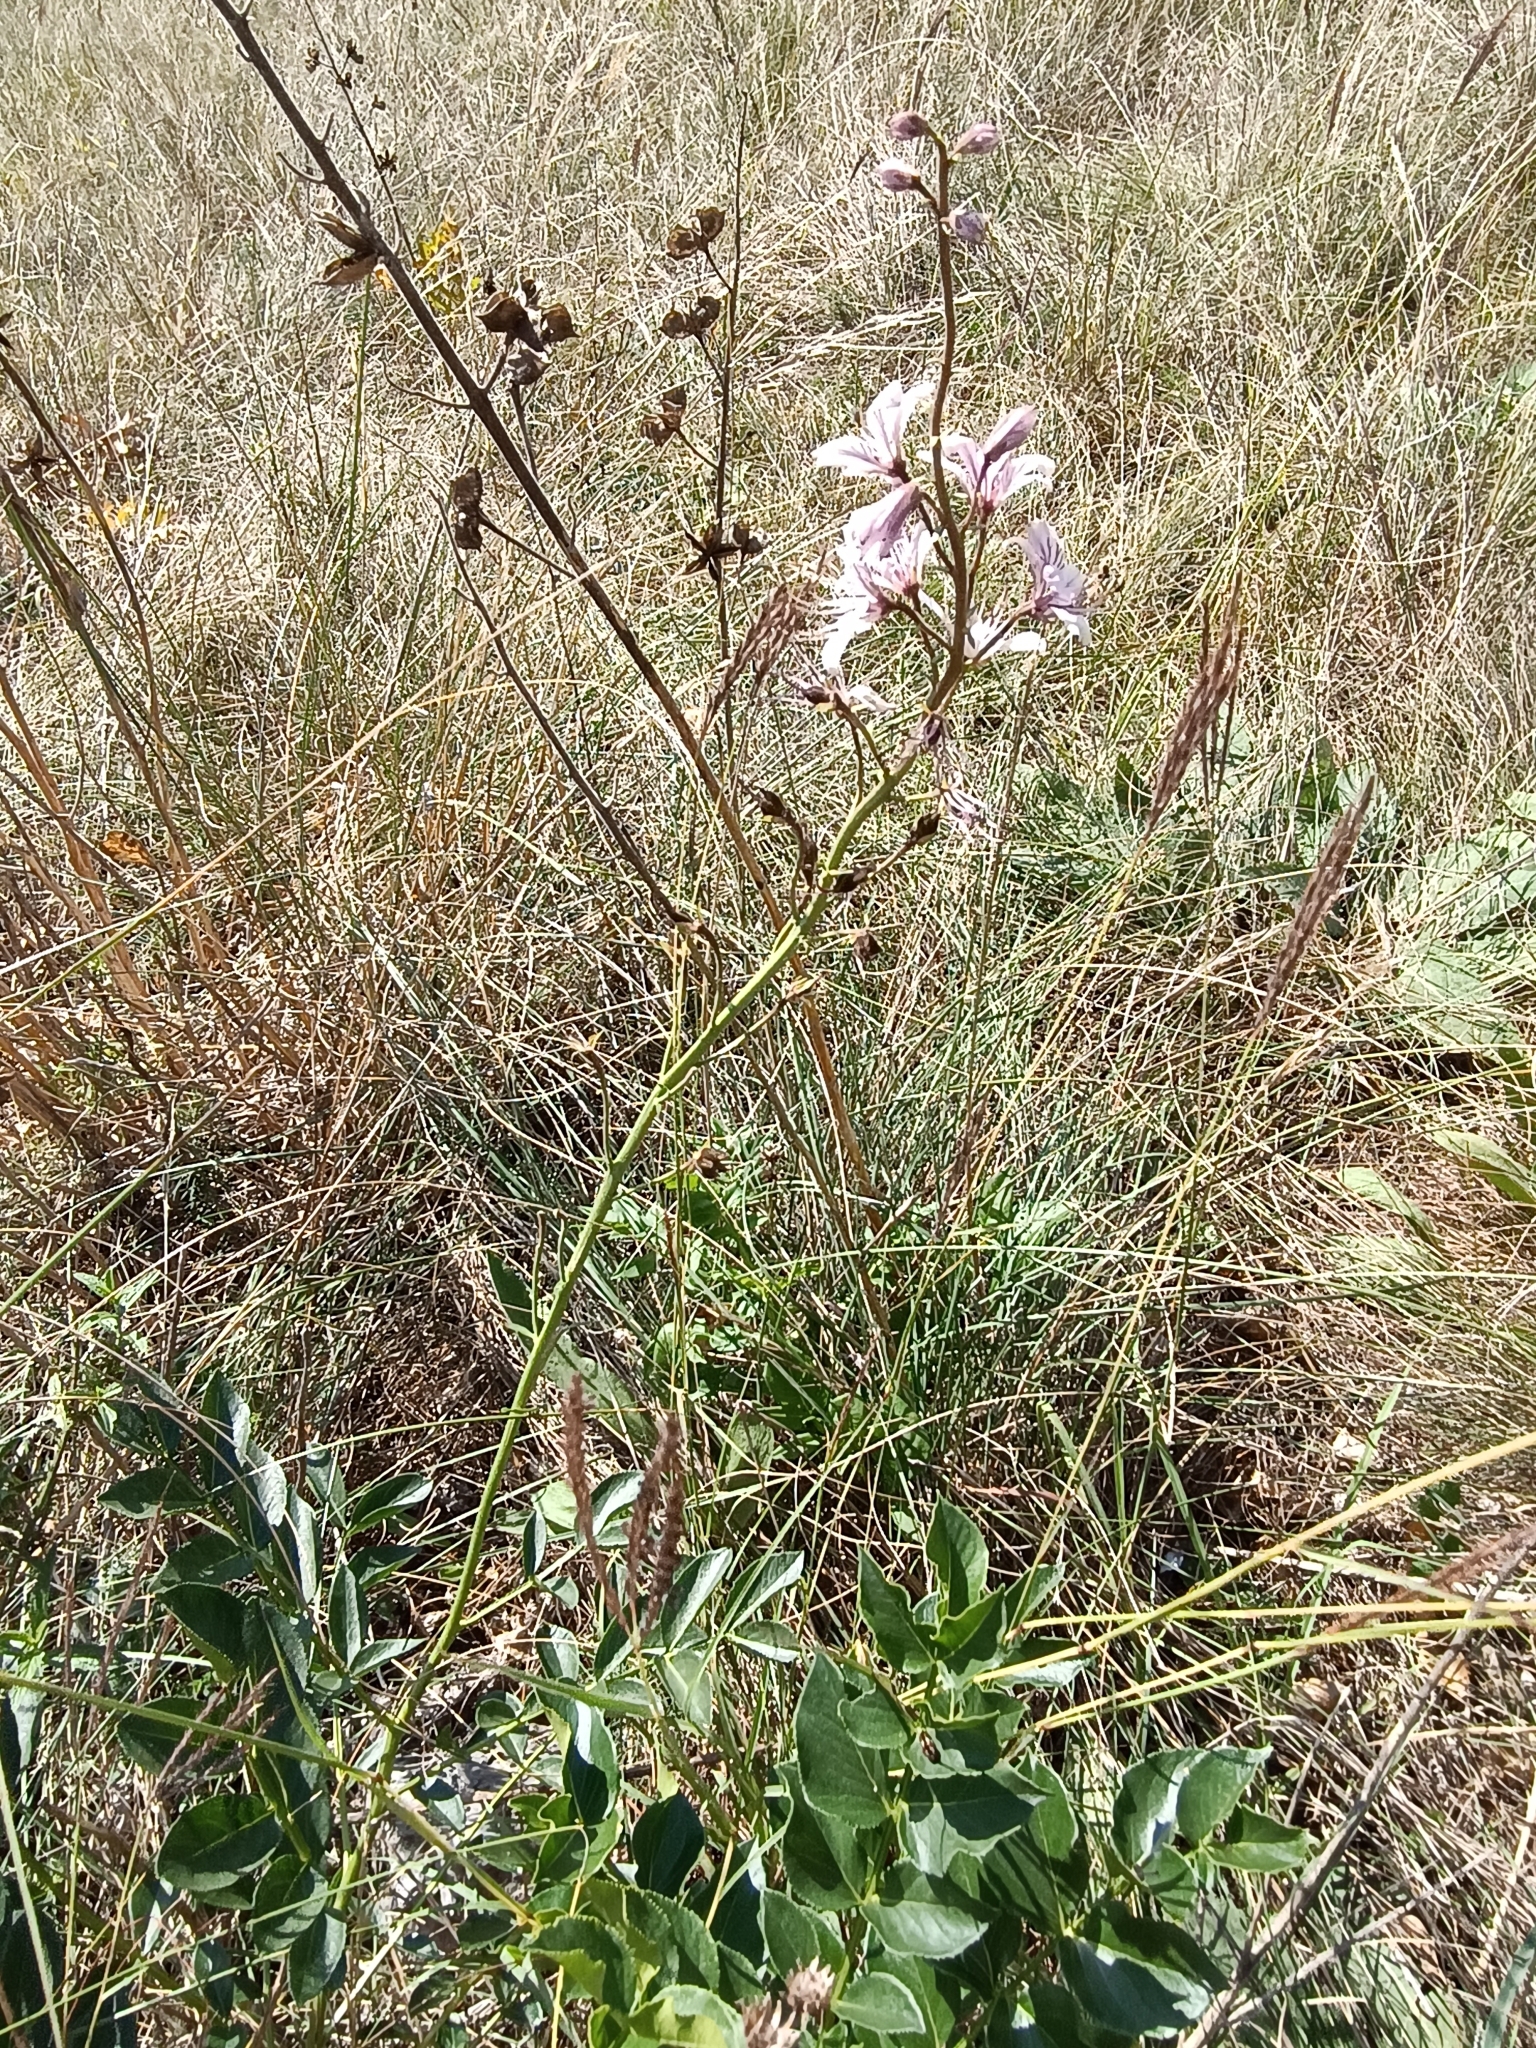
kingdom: Plantae
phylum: Tracheophyta
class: Magnoliopsida
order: Sapindales
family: Rutaceae
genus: Dictamnus
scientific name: Dictamnus albus
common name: Gasplant
